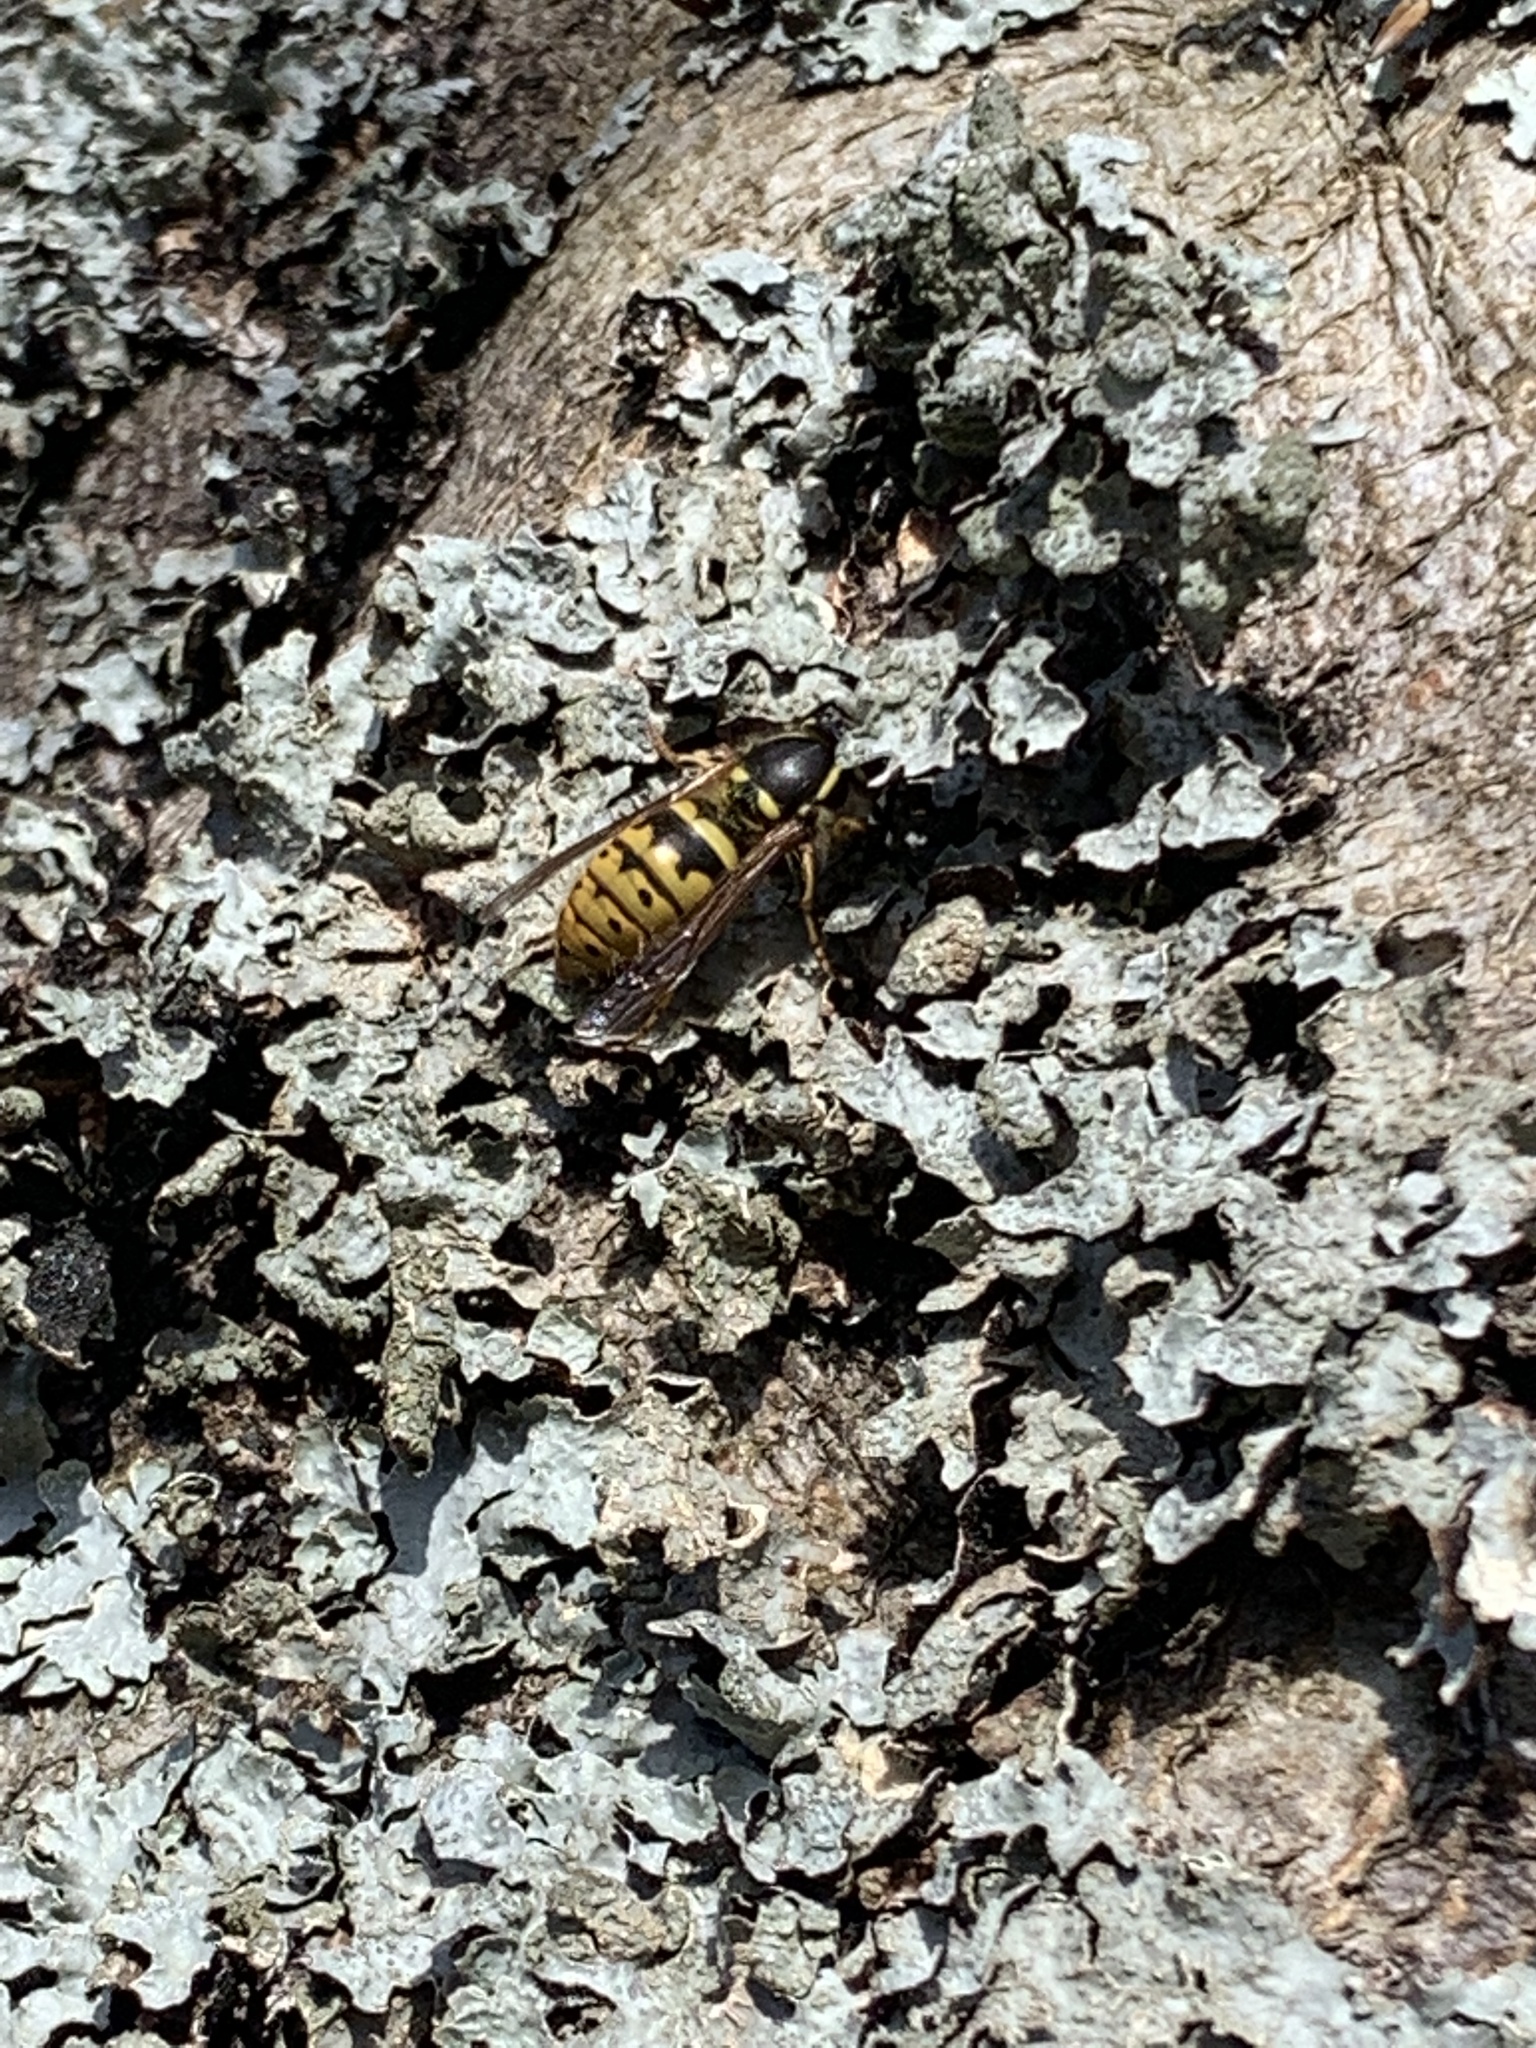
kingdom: Animalia
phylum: Arthropoda
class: Insecta
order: Hymenoptera
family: Vespidae
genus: Vespula
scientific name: Vespula vulgaris
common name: Common wasp
